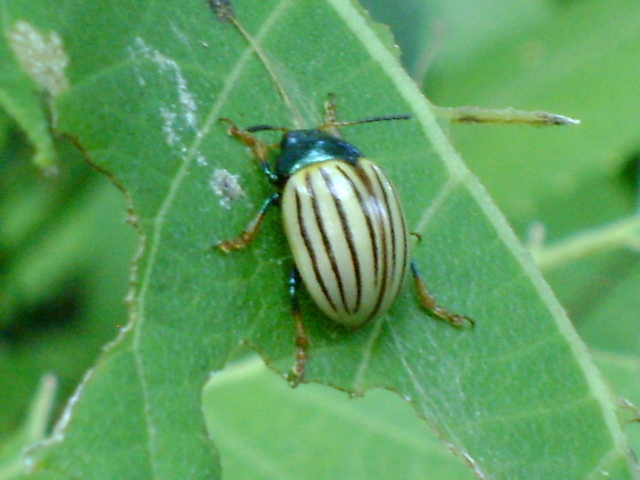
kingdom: Animalia
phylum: Arthropoda
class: Insecta
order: Coleoptera
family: Chrysomelidae
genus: Leptinotarsa
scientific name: Leptinotarsa
